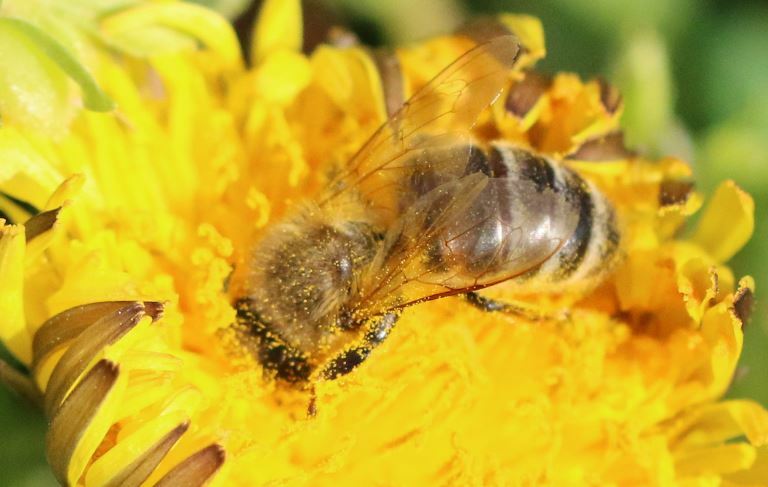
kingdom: Animalia
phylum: Arthropoda
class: Insecta
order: Hymenoptera
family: Apidae
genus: Apis
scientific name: Apis mellifera
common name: Honey bee
